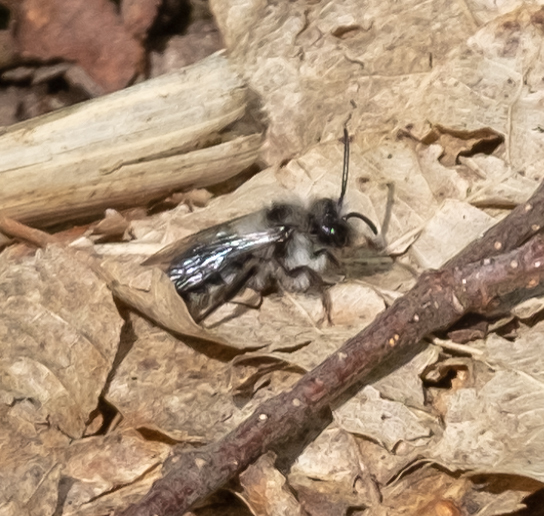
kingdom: Animalia
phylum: Arthropoda
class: Insecta
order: Hymenoptera
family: Andrenidae
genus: Andrena
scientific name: Andrena cineraria
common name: Ashy mining bee
